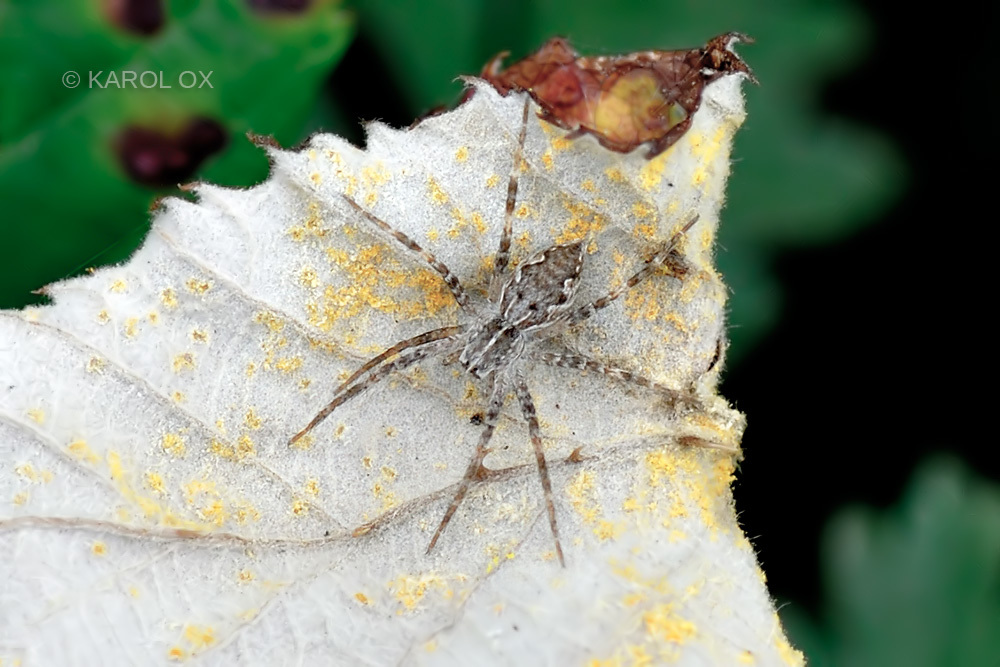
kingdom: Animalia
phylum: Arthropoda
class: Arachnida
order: Araneae
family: Pisauridae
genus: Pisaura
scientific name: Pisaura mirabilis
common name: Tent spider
